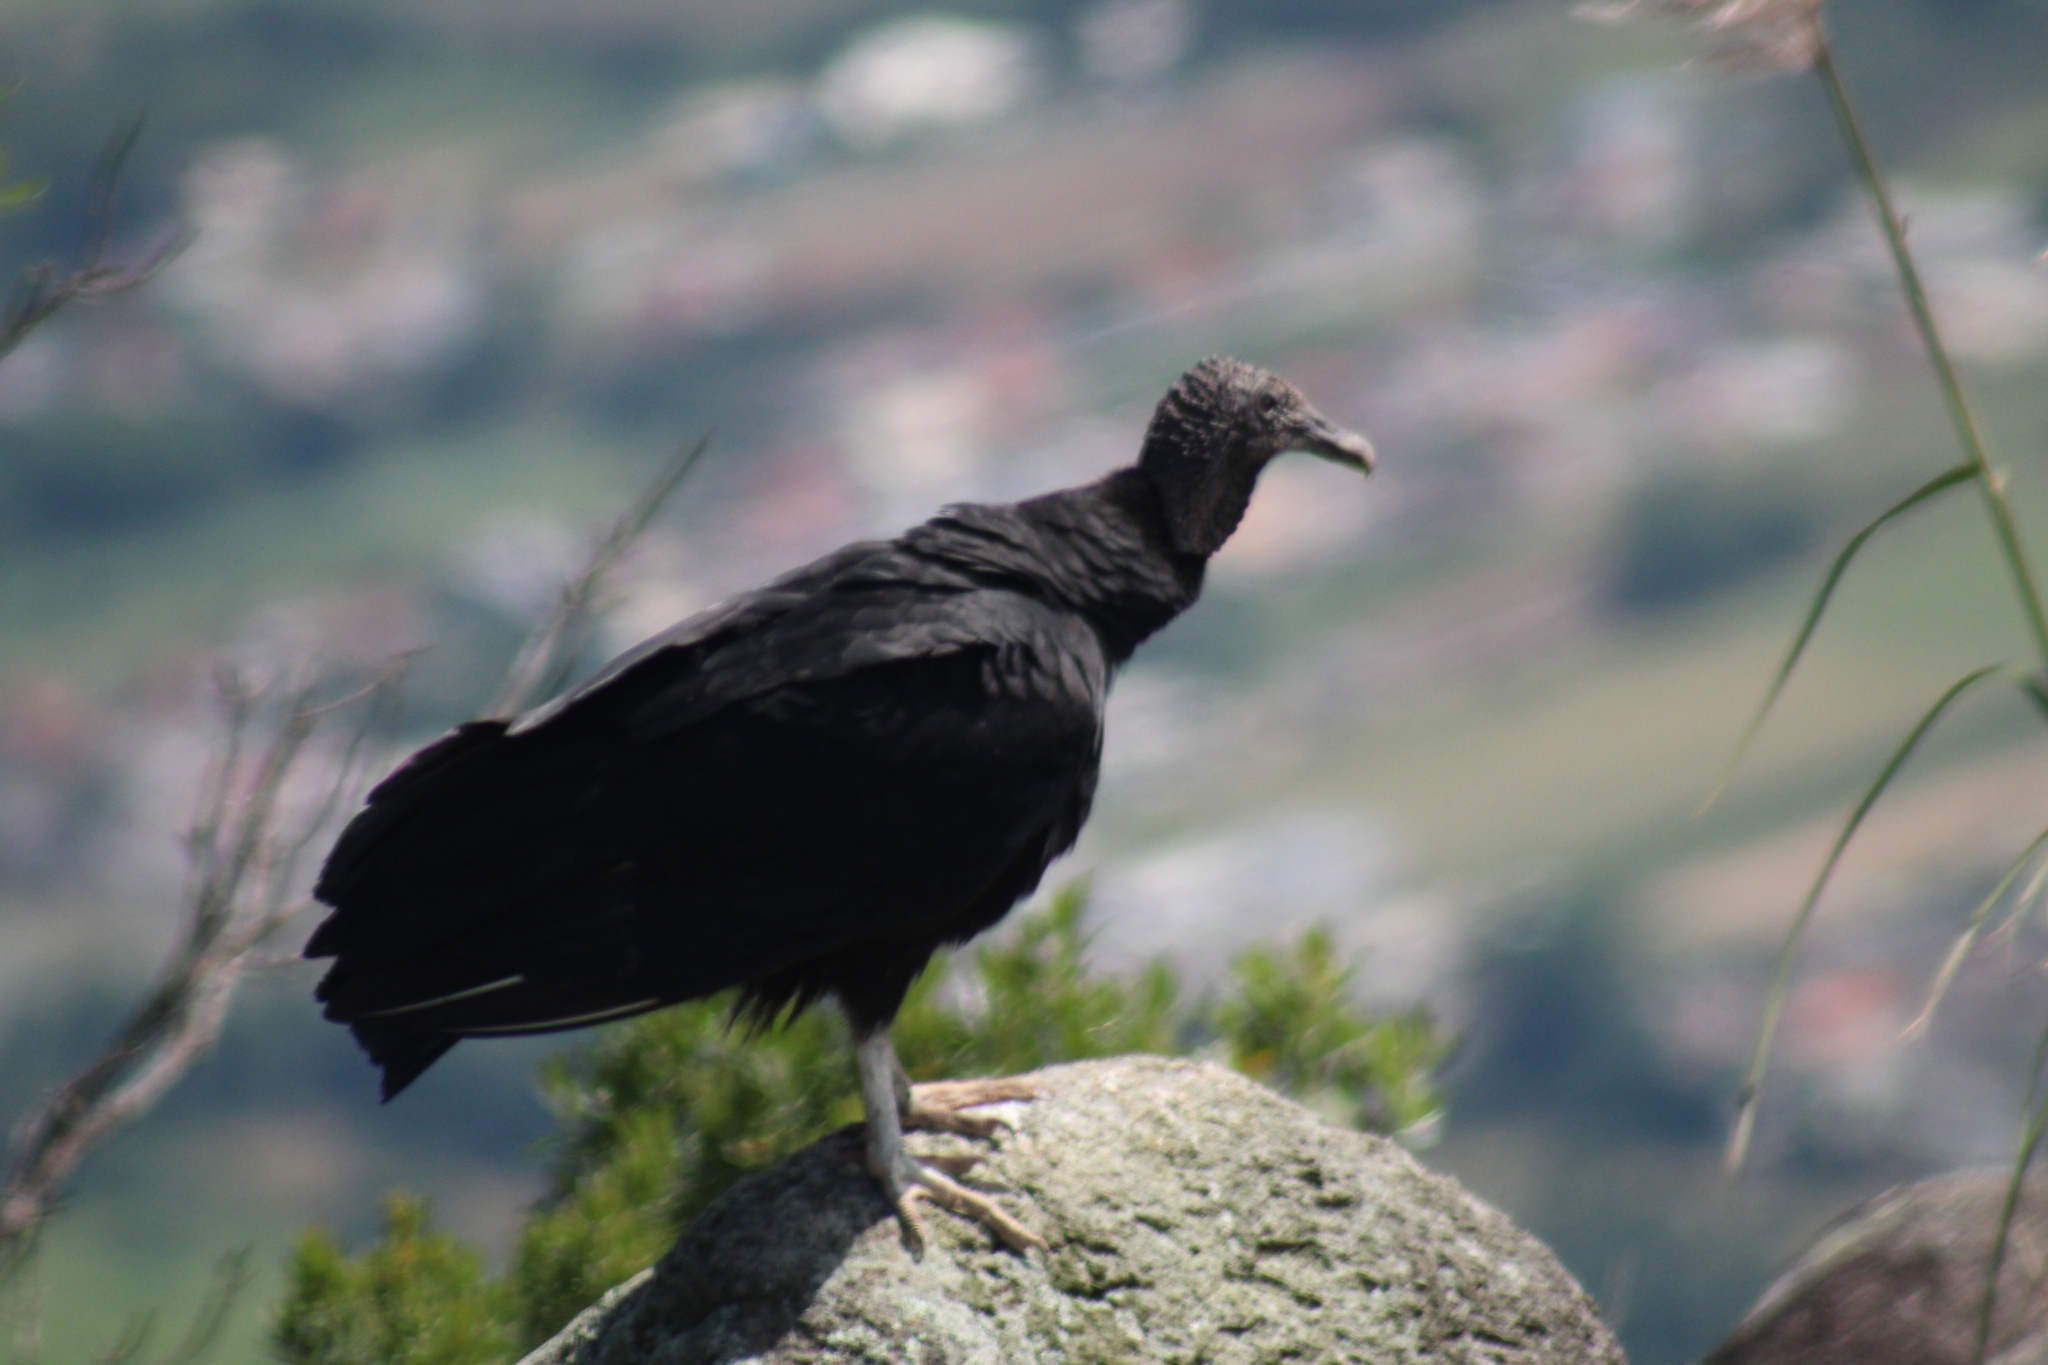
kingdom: Animalia
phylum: Chordata
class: Aves
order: Accipitriformes
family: Cathartidae
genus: Coragyps
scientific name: Coragyps atratus
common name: Black vulture
